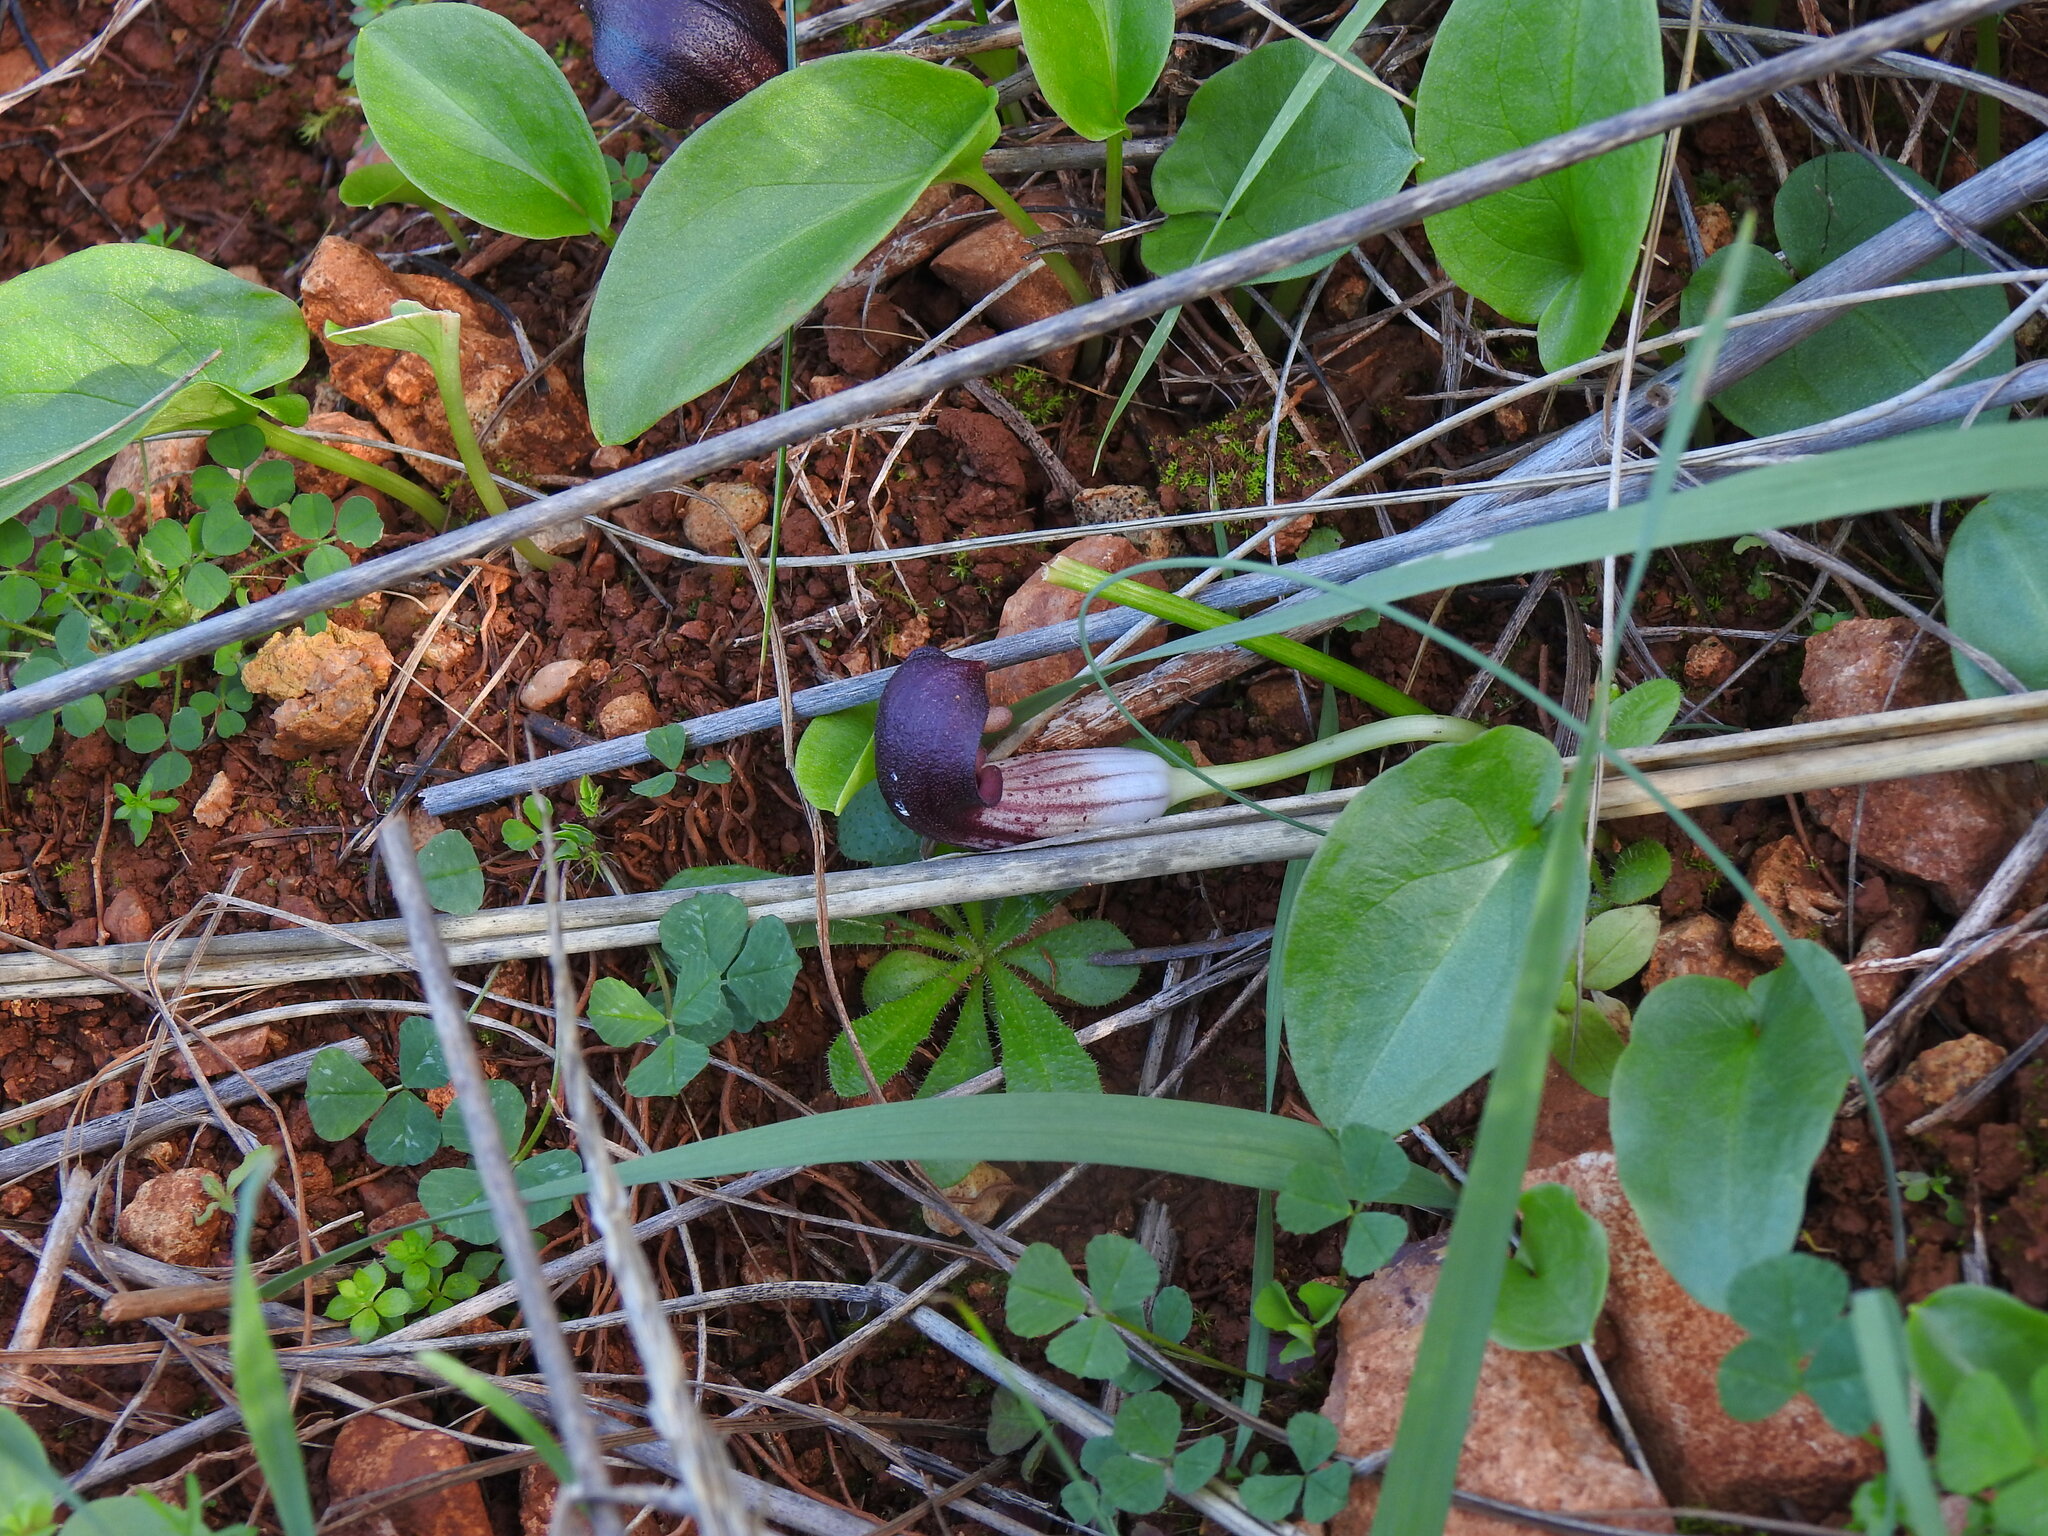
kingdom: Plantae
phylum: Tracheophyta
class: Liliopsida
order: Alismatales
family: Araceae
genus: Arisarum
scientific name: Arisarum simorrhinum
